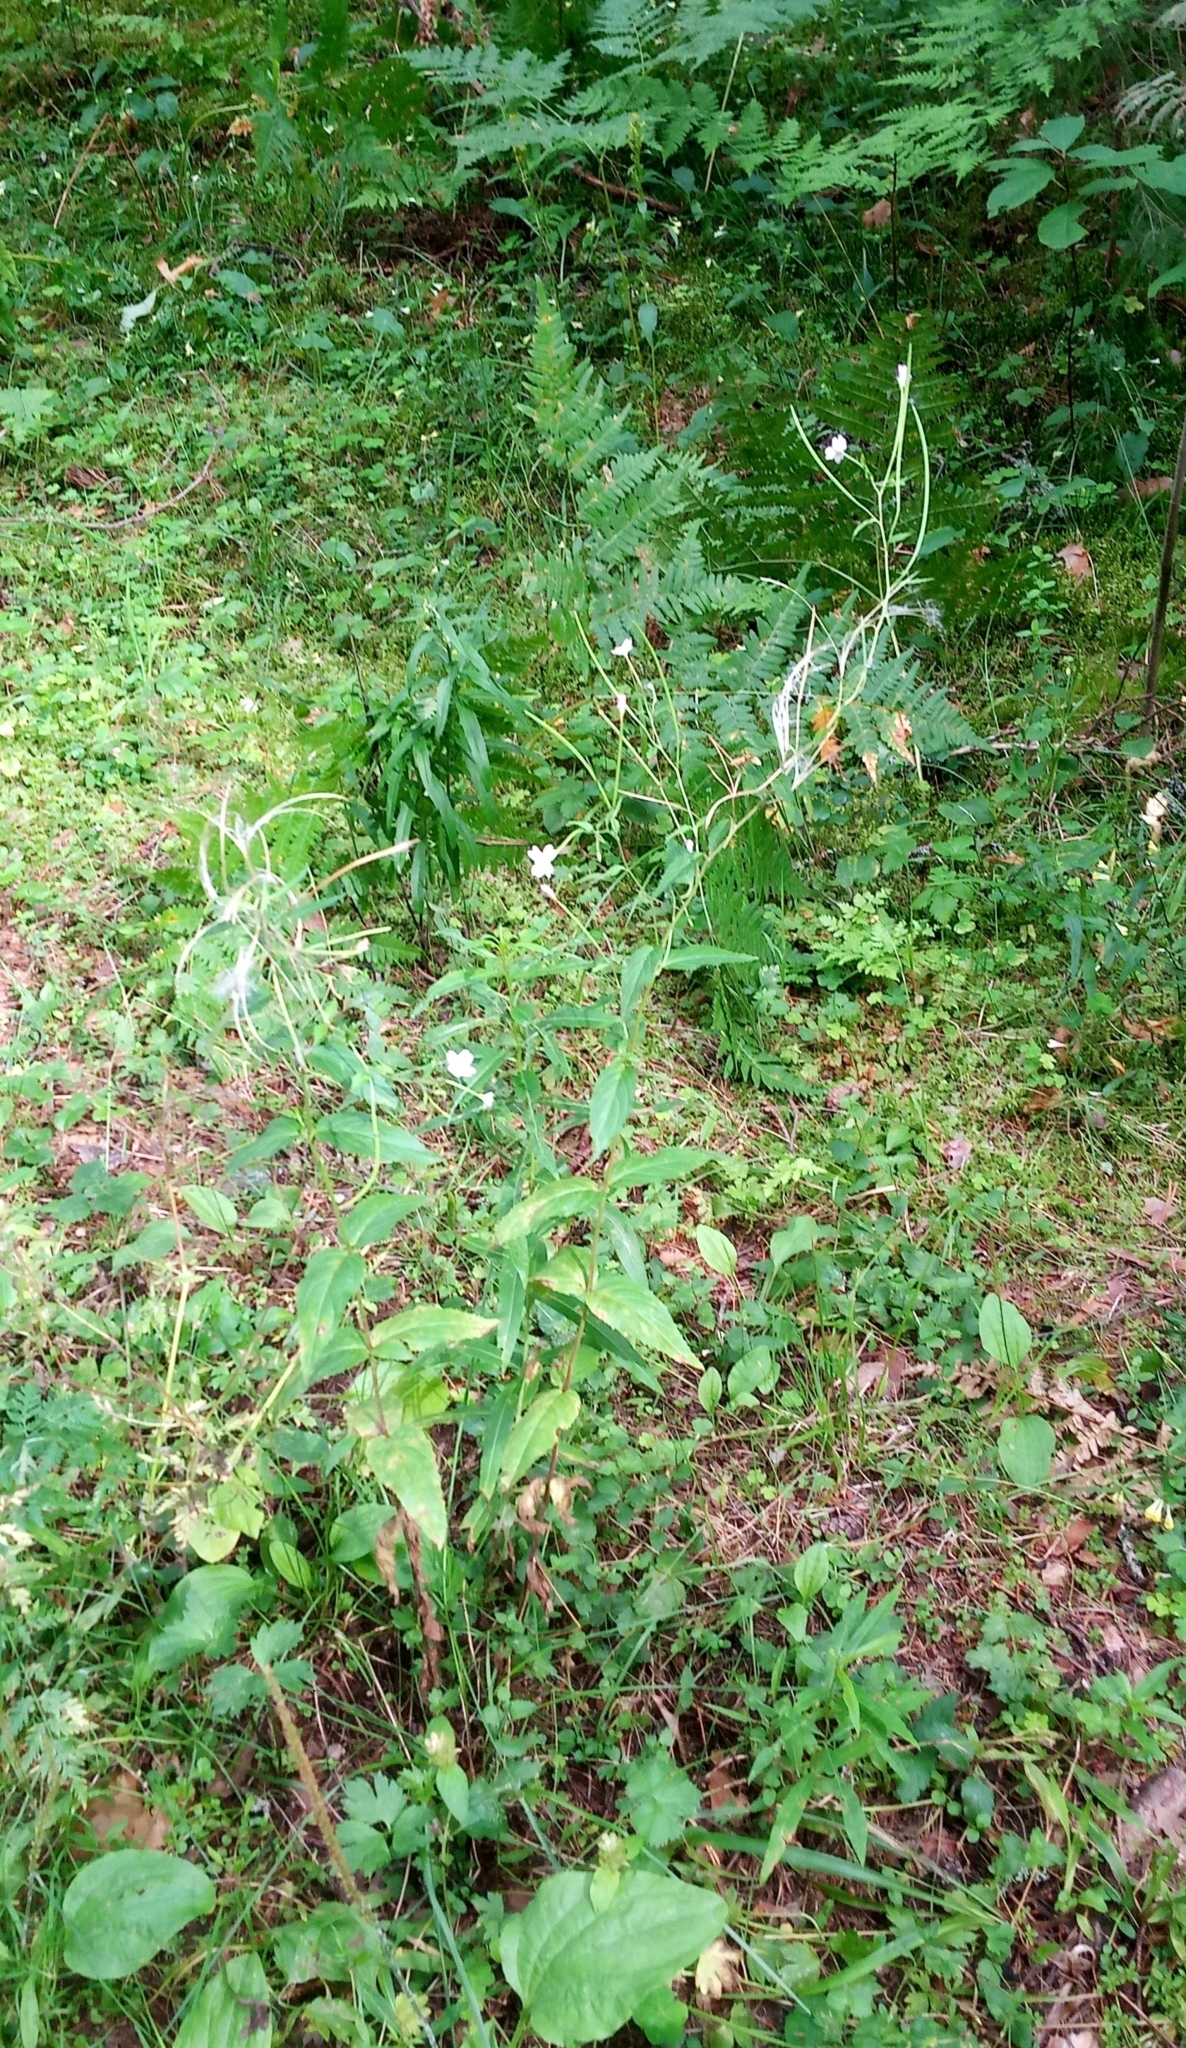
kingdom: Plantae
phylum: Tracheophyta
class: Magnoliopsida
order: Myrtales
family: Onagraceae
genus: Epilobium
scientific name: Epilobium montanum
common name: Broad-leaved willowherb
